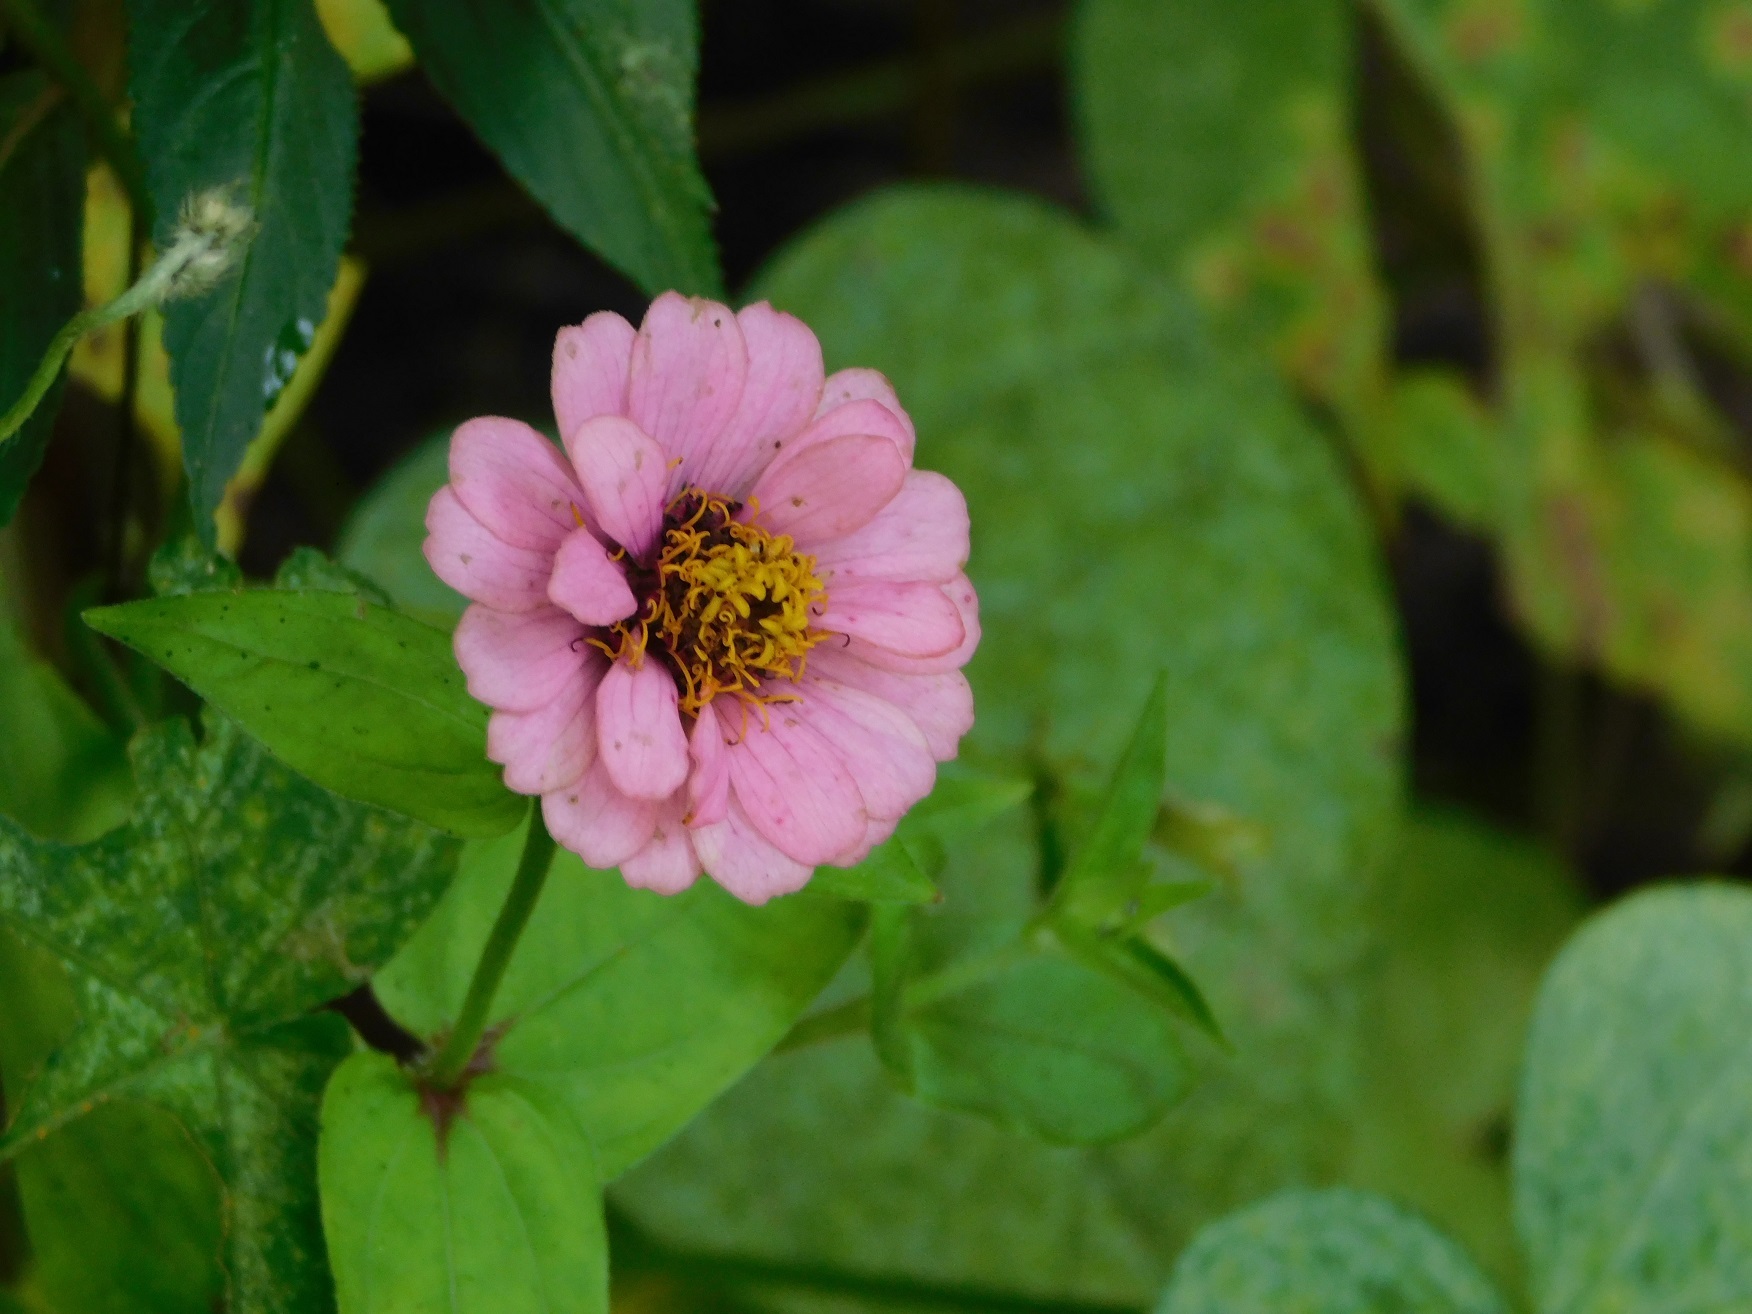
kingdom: Plantae
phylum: Tracheophyta
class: Magnoliopsida
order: Asterales
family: Asteraceae
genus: Zinnia
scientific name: Zinnia elegans
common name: Youth-and-age
